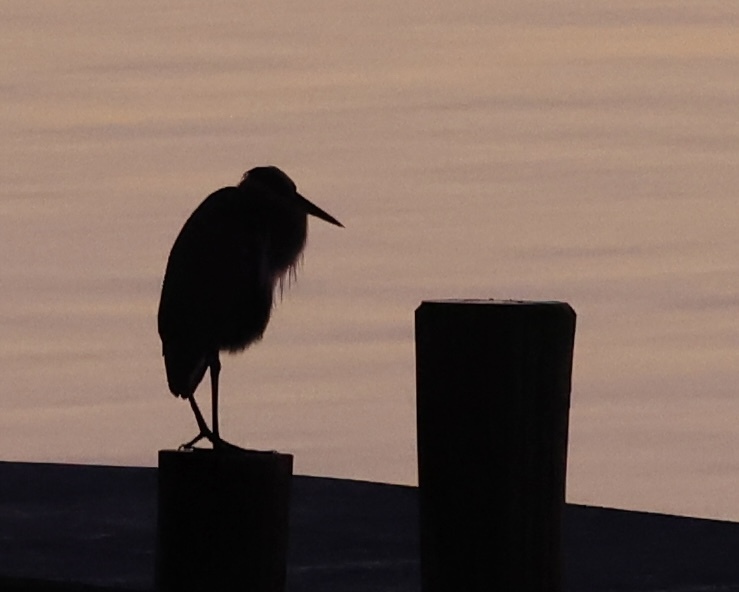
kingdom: Animalia
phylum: Chordata
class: Aves
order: Pelecaniformes
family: Ardeidae
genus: Ardea
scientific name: Ardea herodias
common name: Great blue heron
